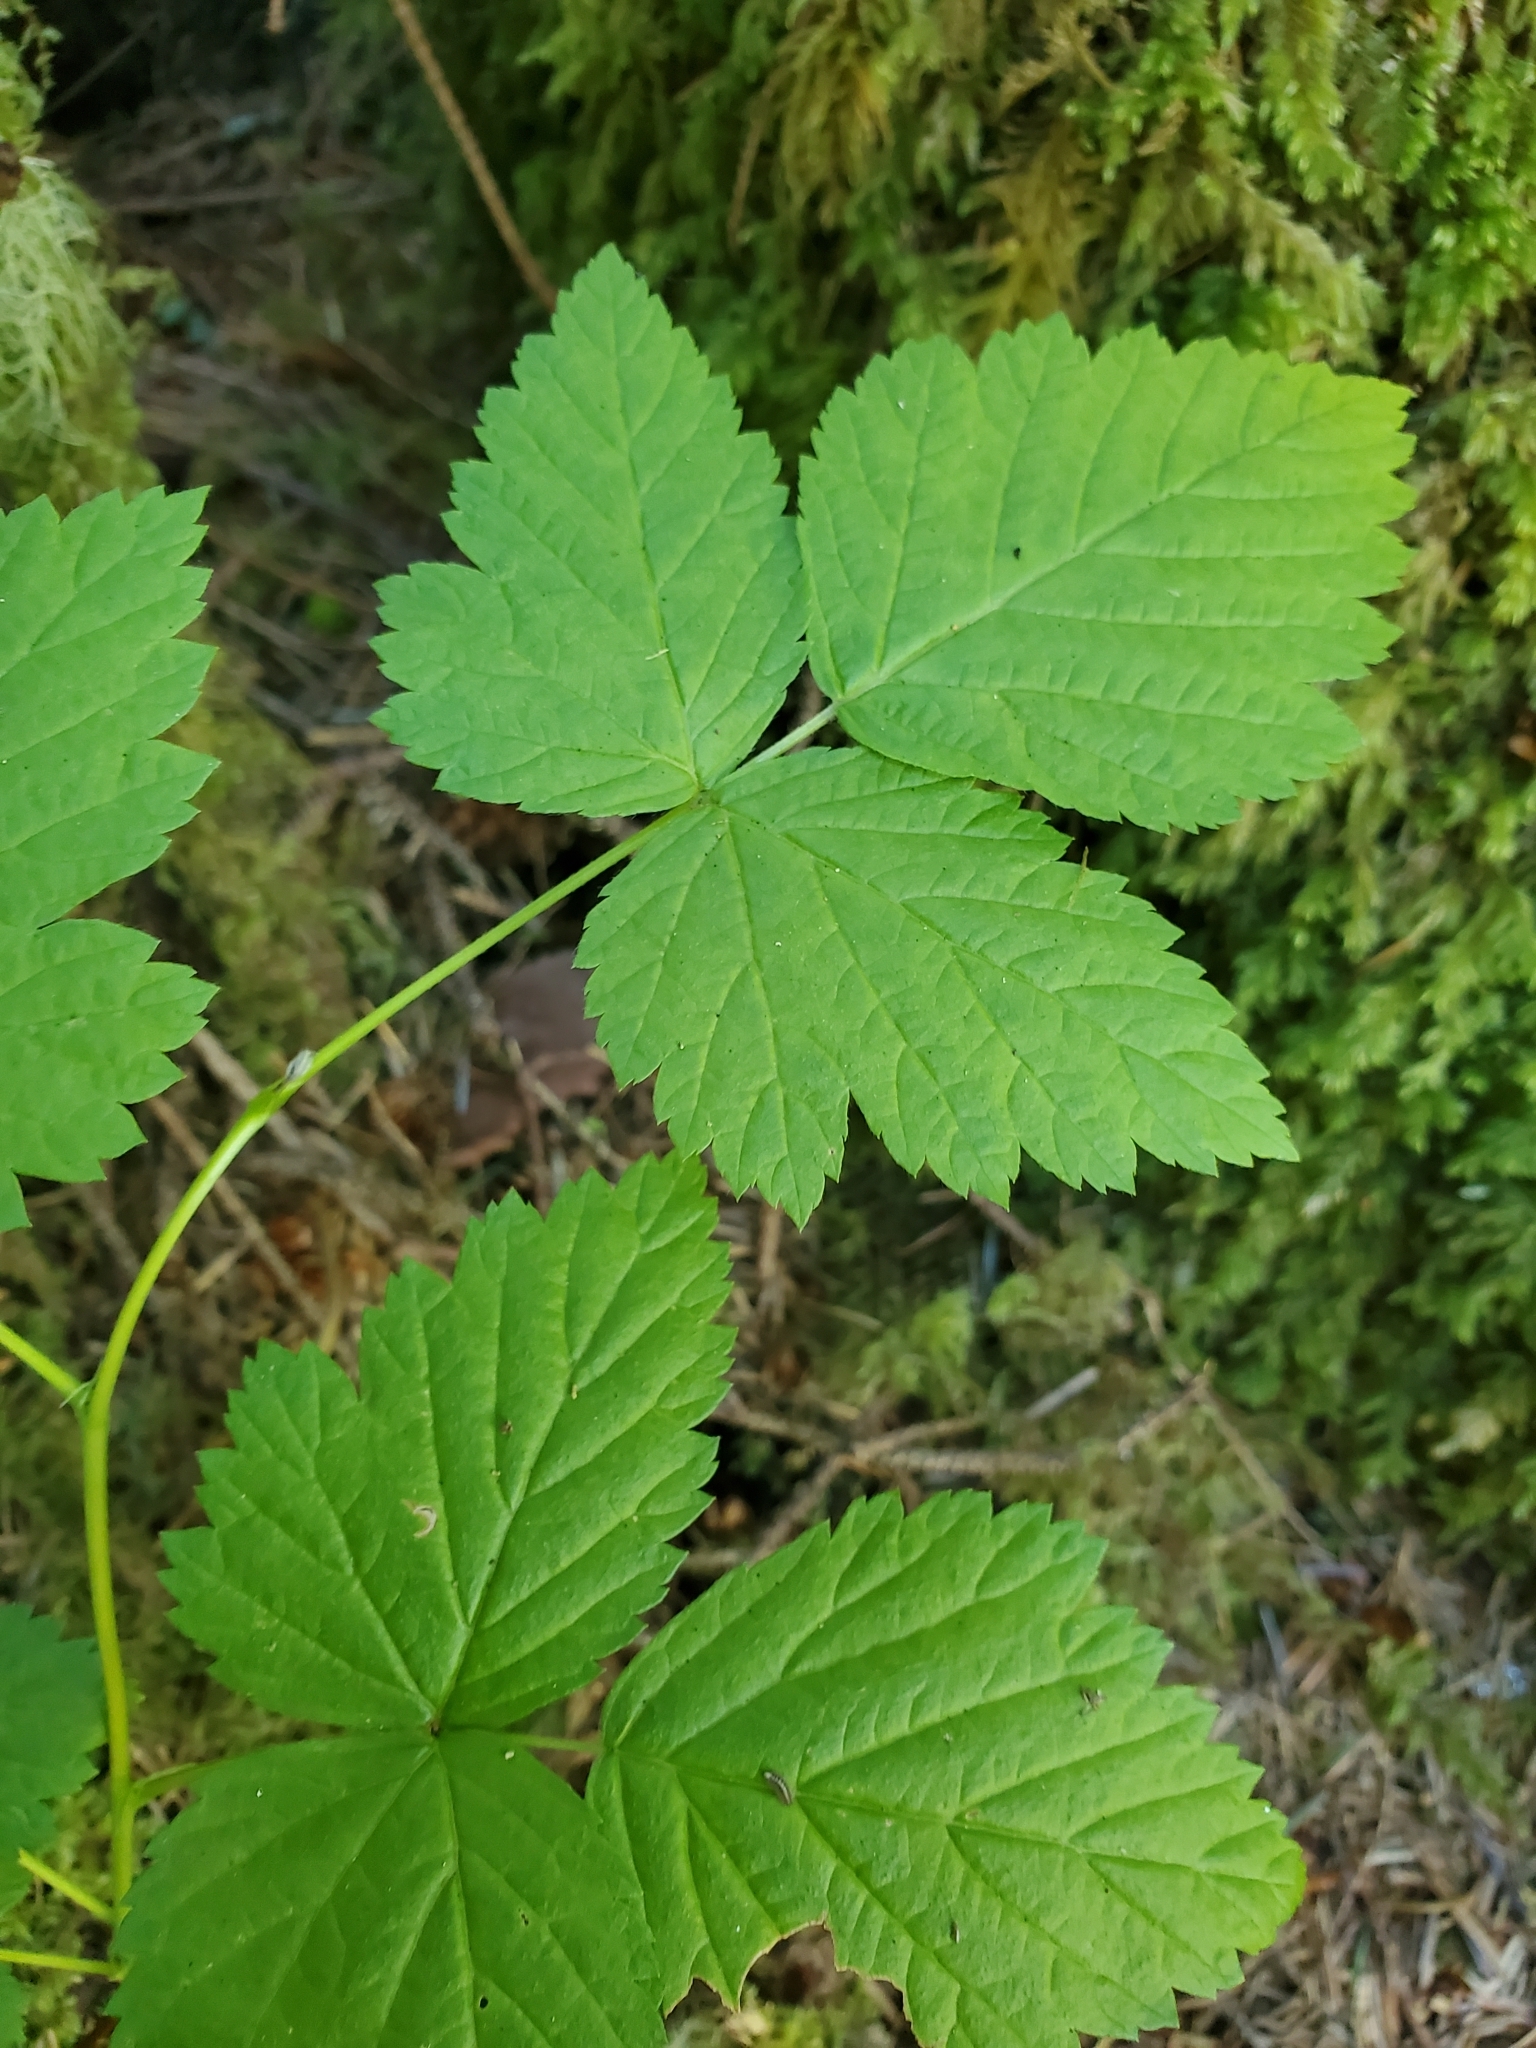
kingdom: Plantae
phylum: Tracheophyta
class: Magnoliopsida
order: Rosales
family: Rosaceae
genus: Rubus
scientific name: Rubus spectabilis
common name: Salmonberry
